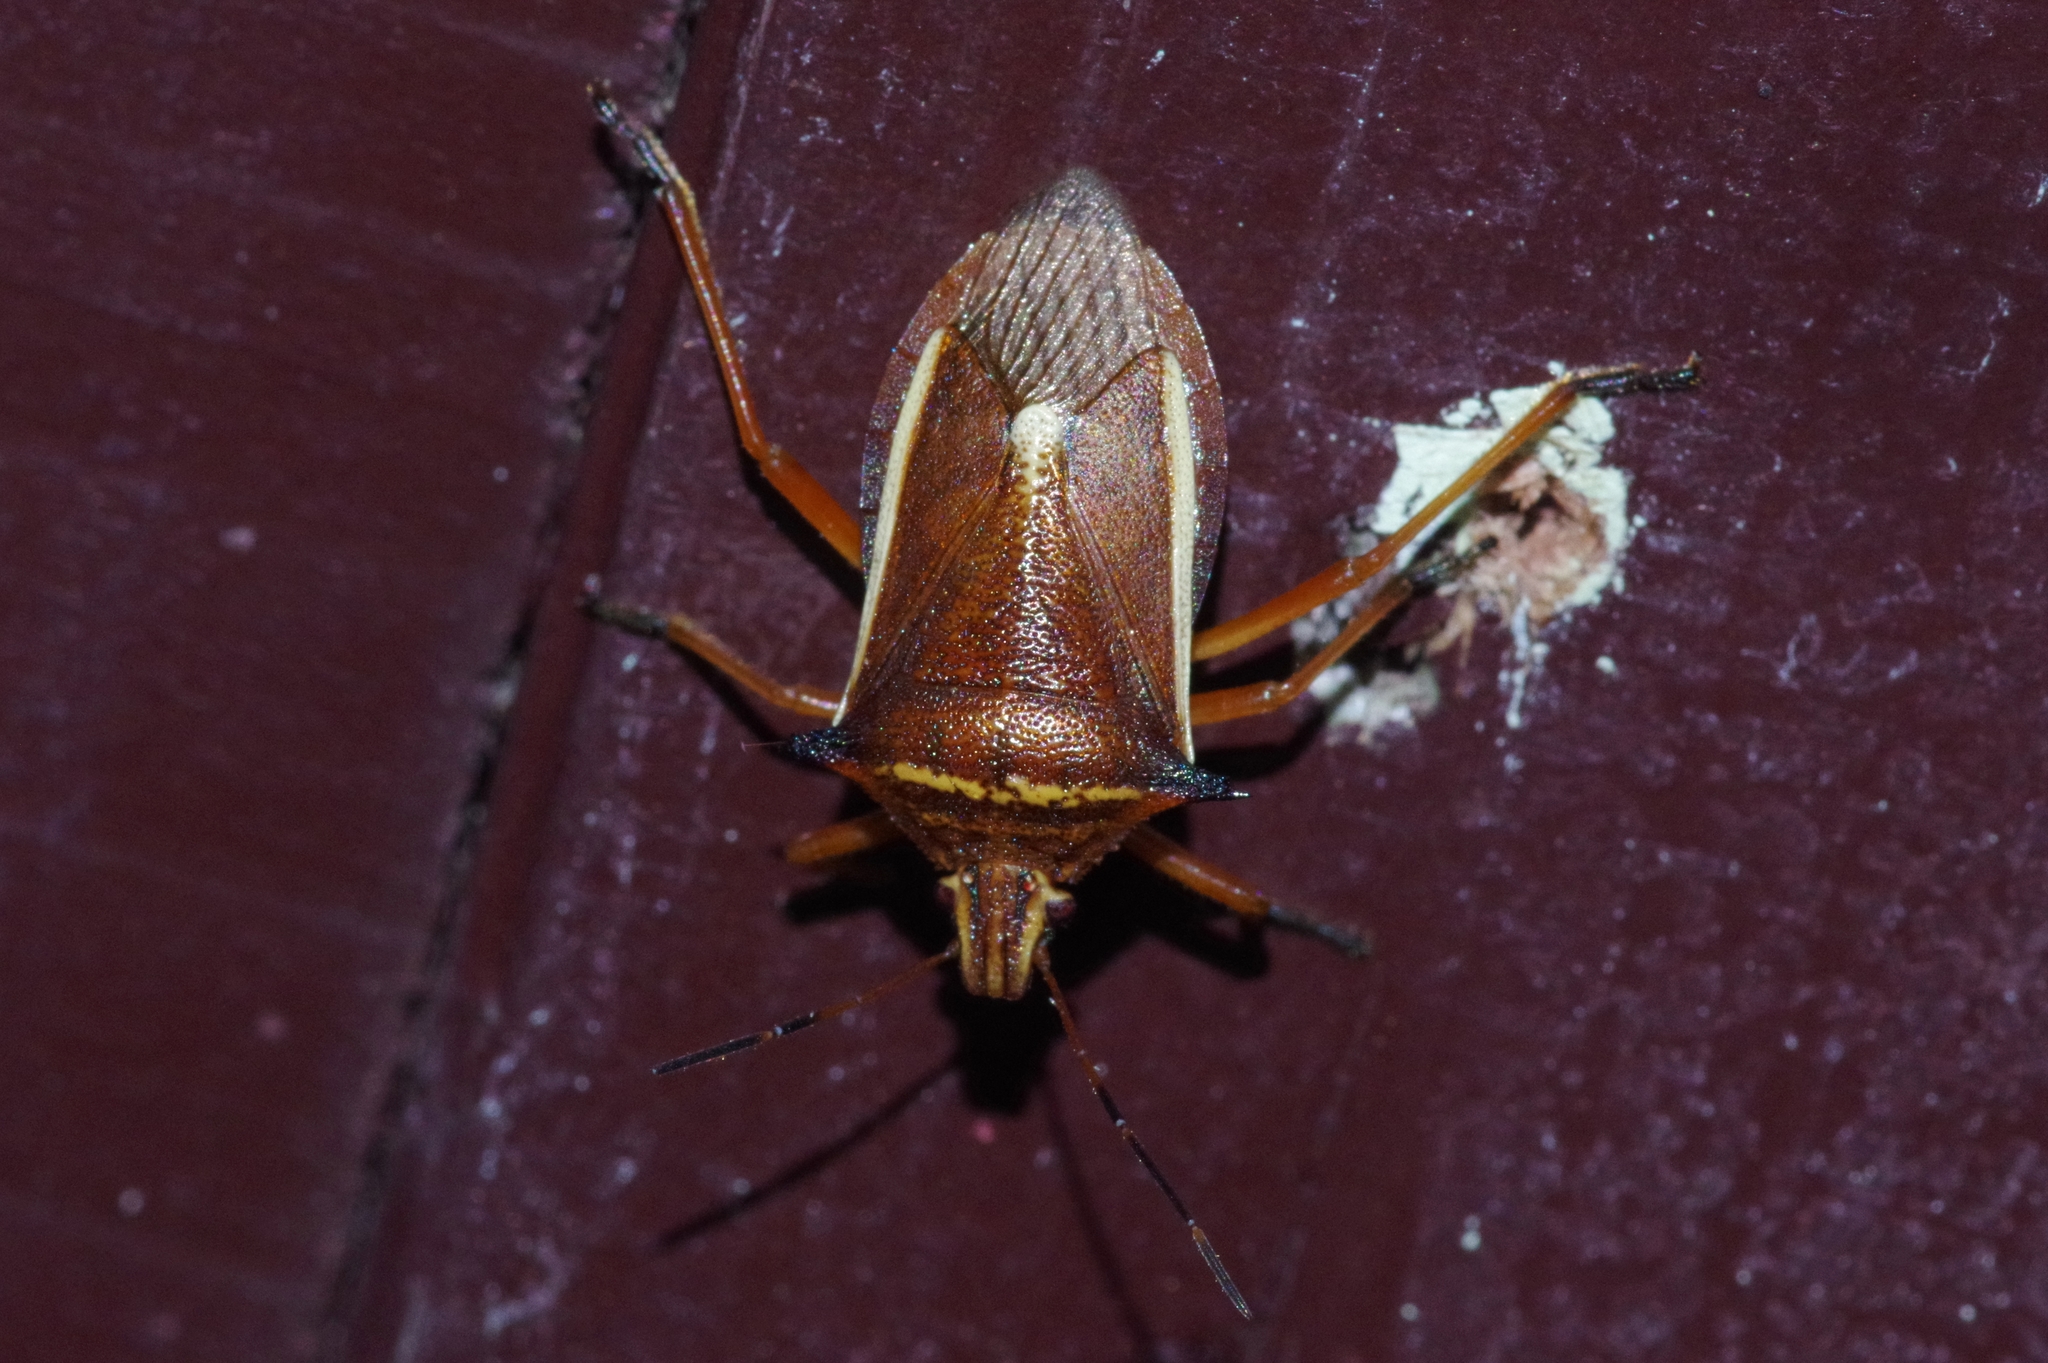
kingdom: Animalia
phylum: Arthropoda
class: Insecta
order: Hemiptera
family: Pentatomidae
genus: Andrallus
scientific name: Andrallus spinidens
